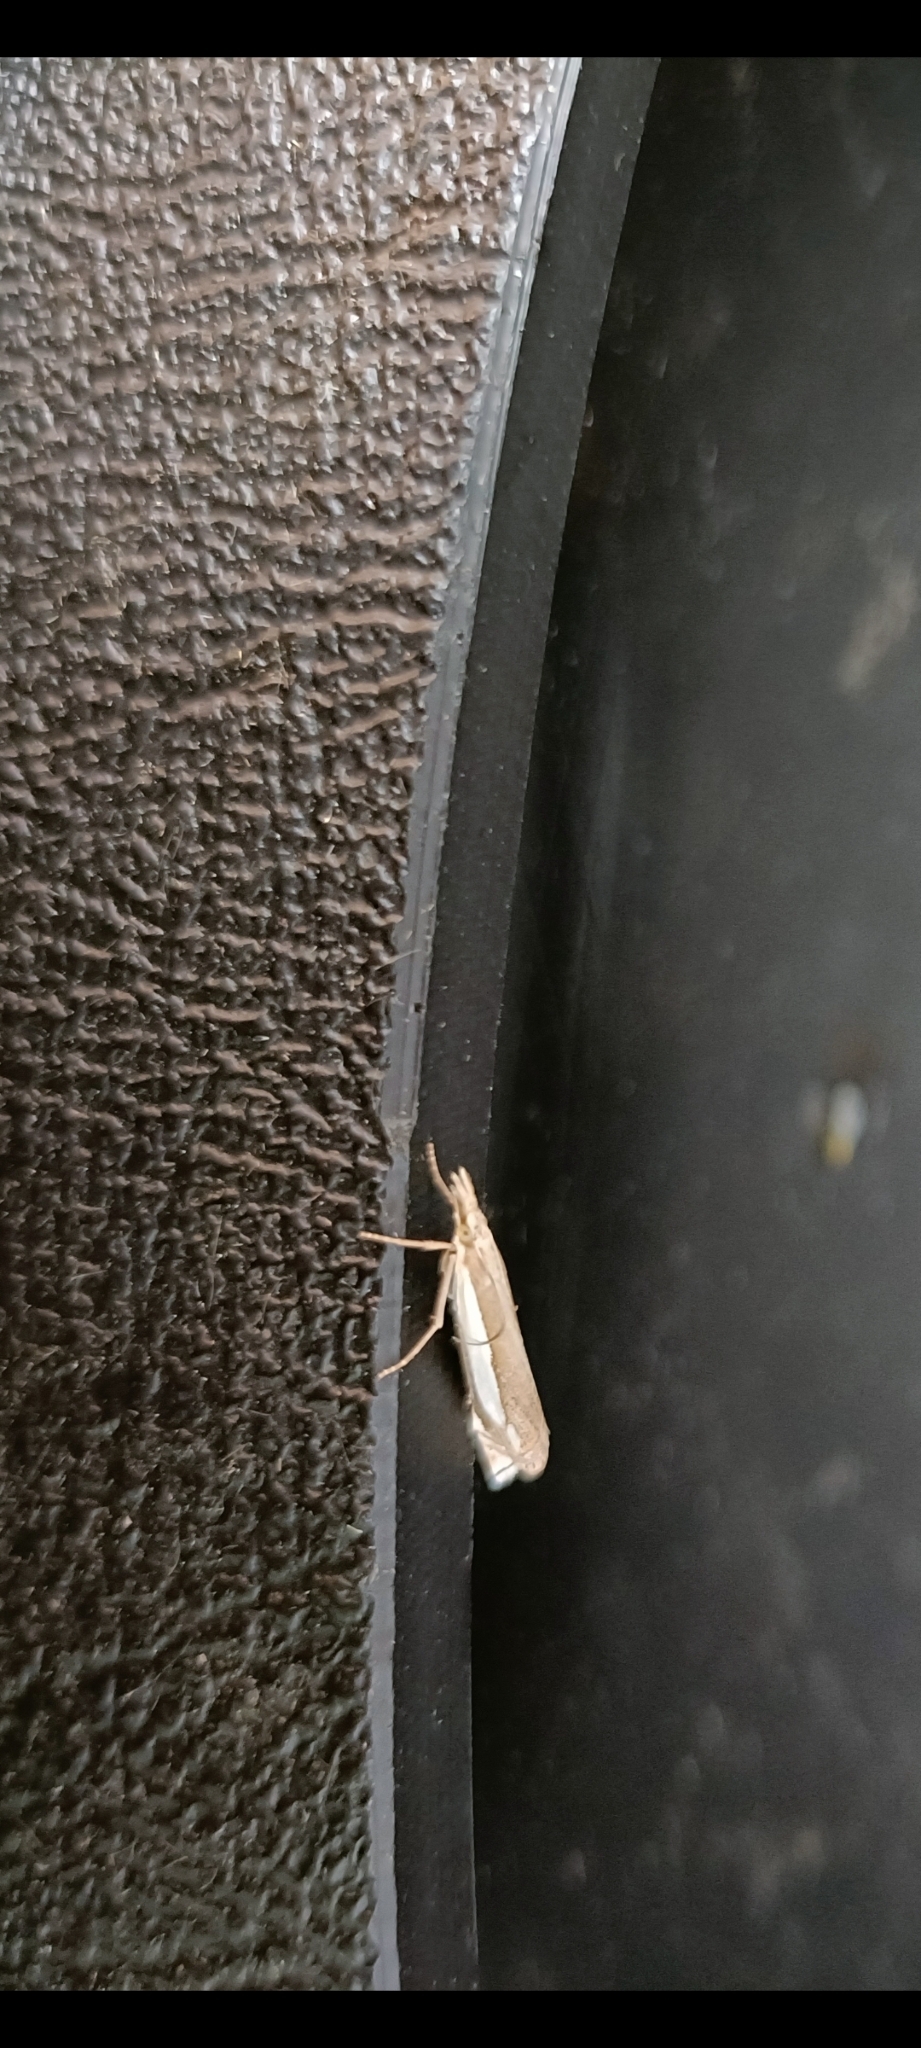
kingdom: Animalia
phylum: Arthropoda
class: Insecta
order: Lepidoptera
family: Crambidae
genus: Crambus
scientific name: Crambus pascuella
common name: Inlaid grass-veneer
